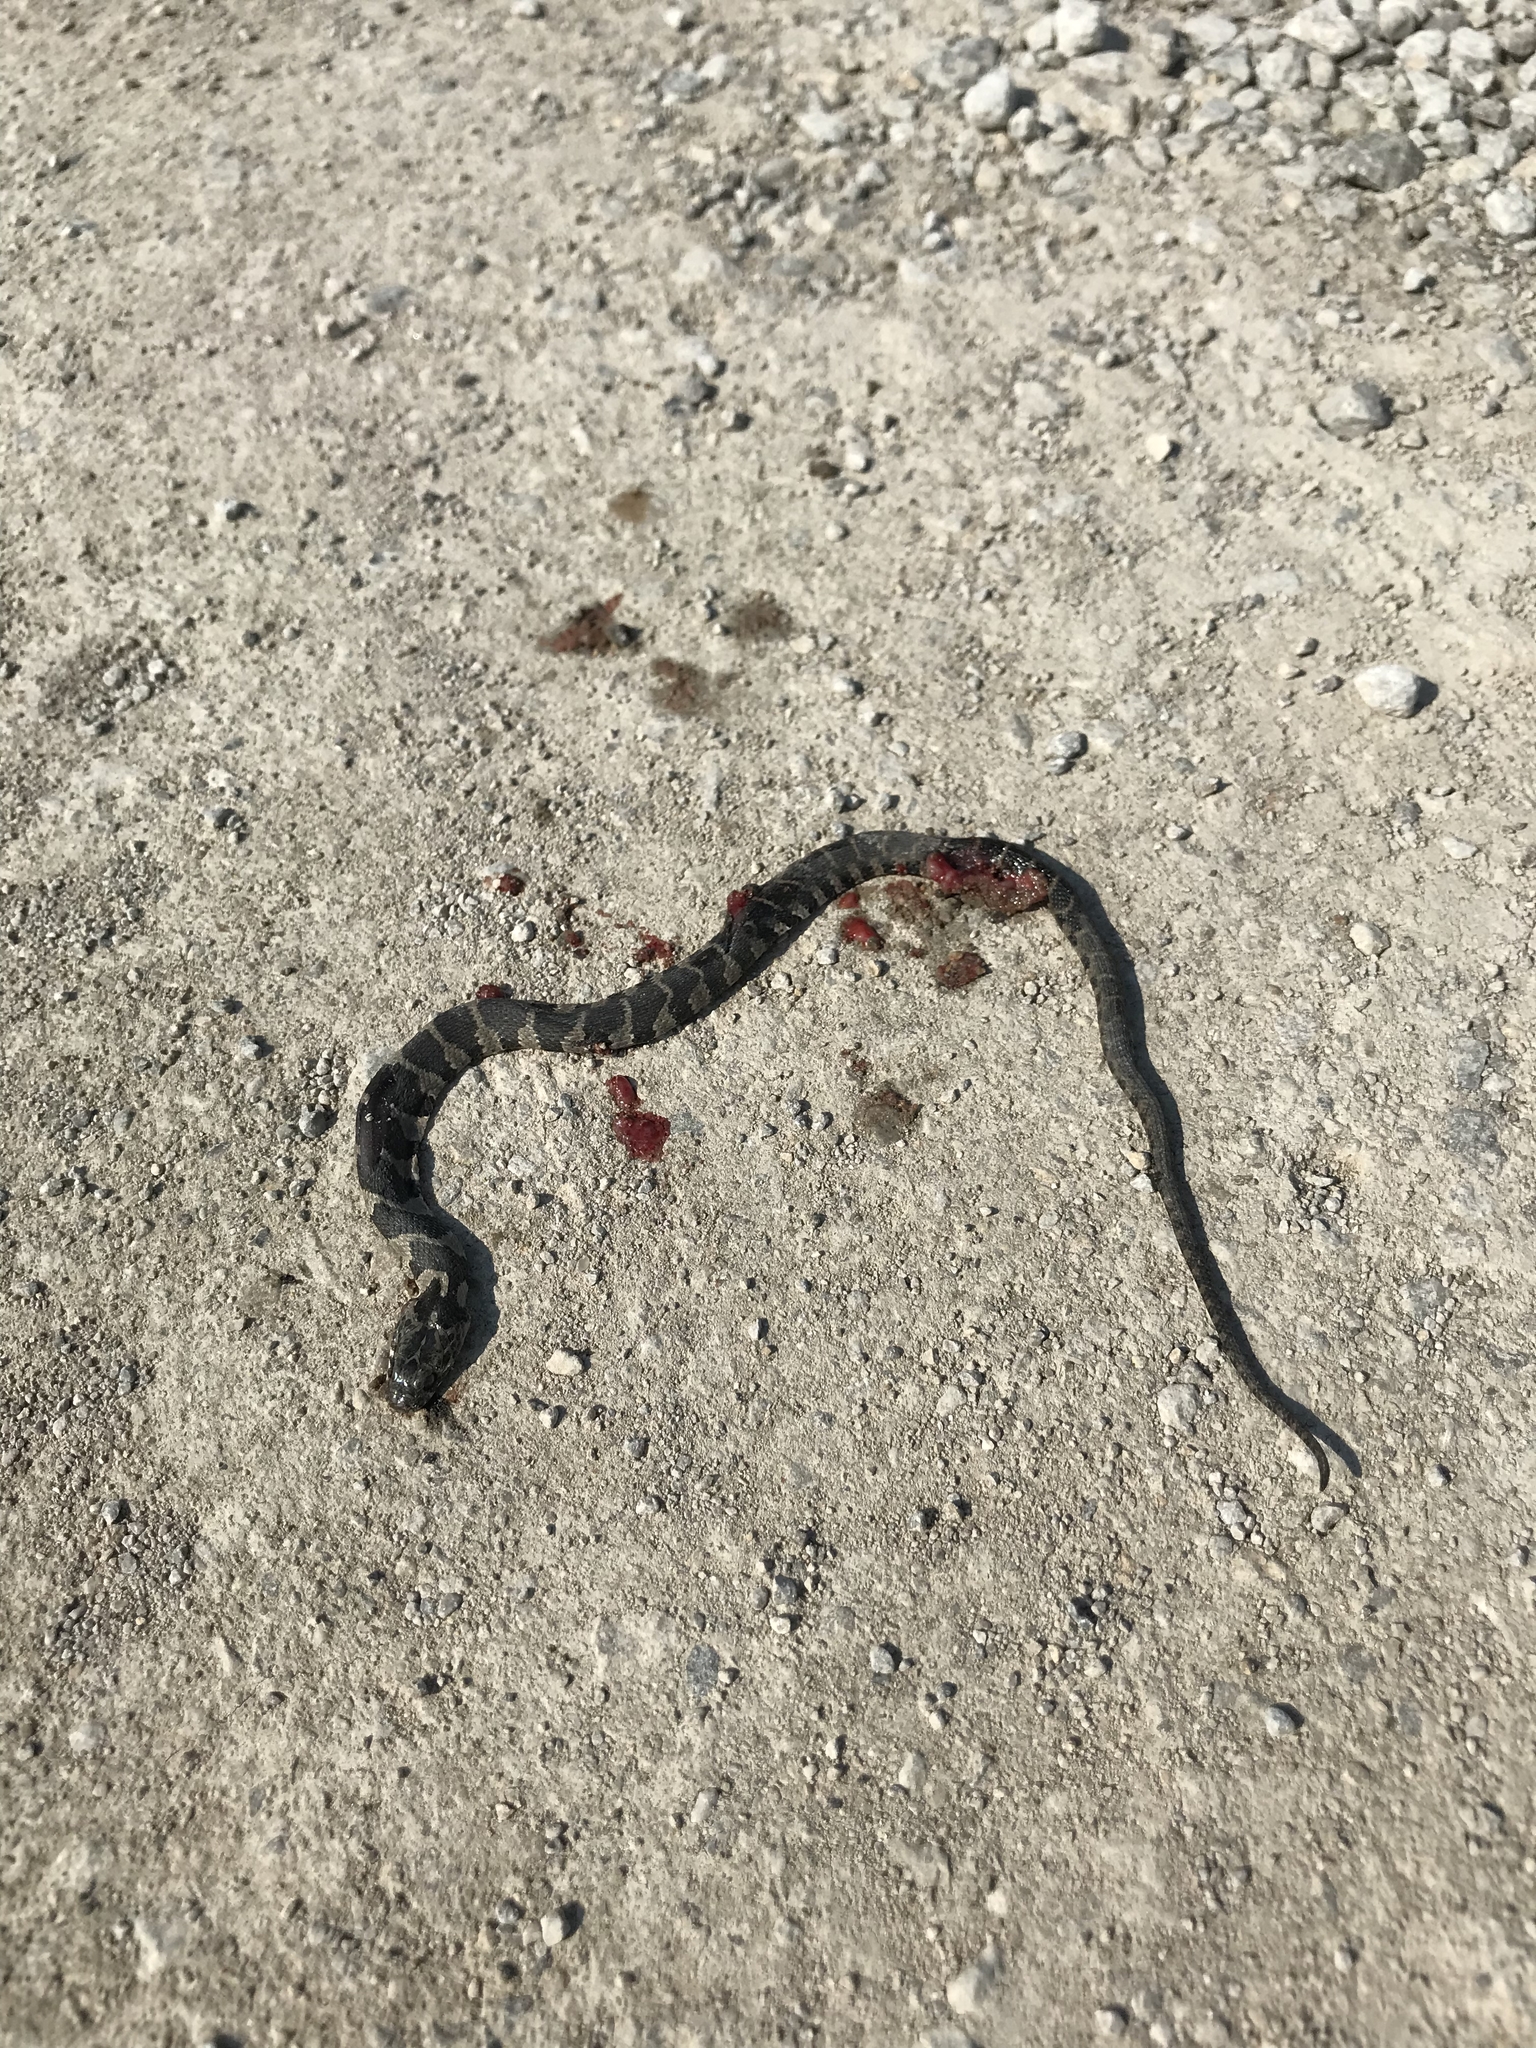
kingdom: Animalia
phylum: Chordata
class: Squamata
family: Colubridae
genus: Nerodia
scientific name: Nerodia sipedon
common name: Northern water snake
